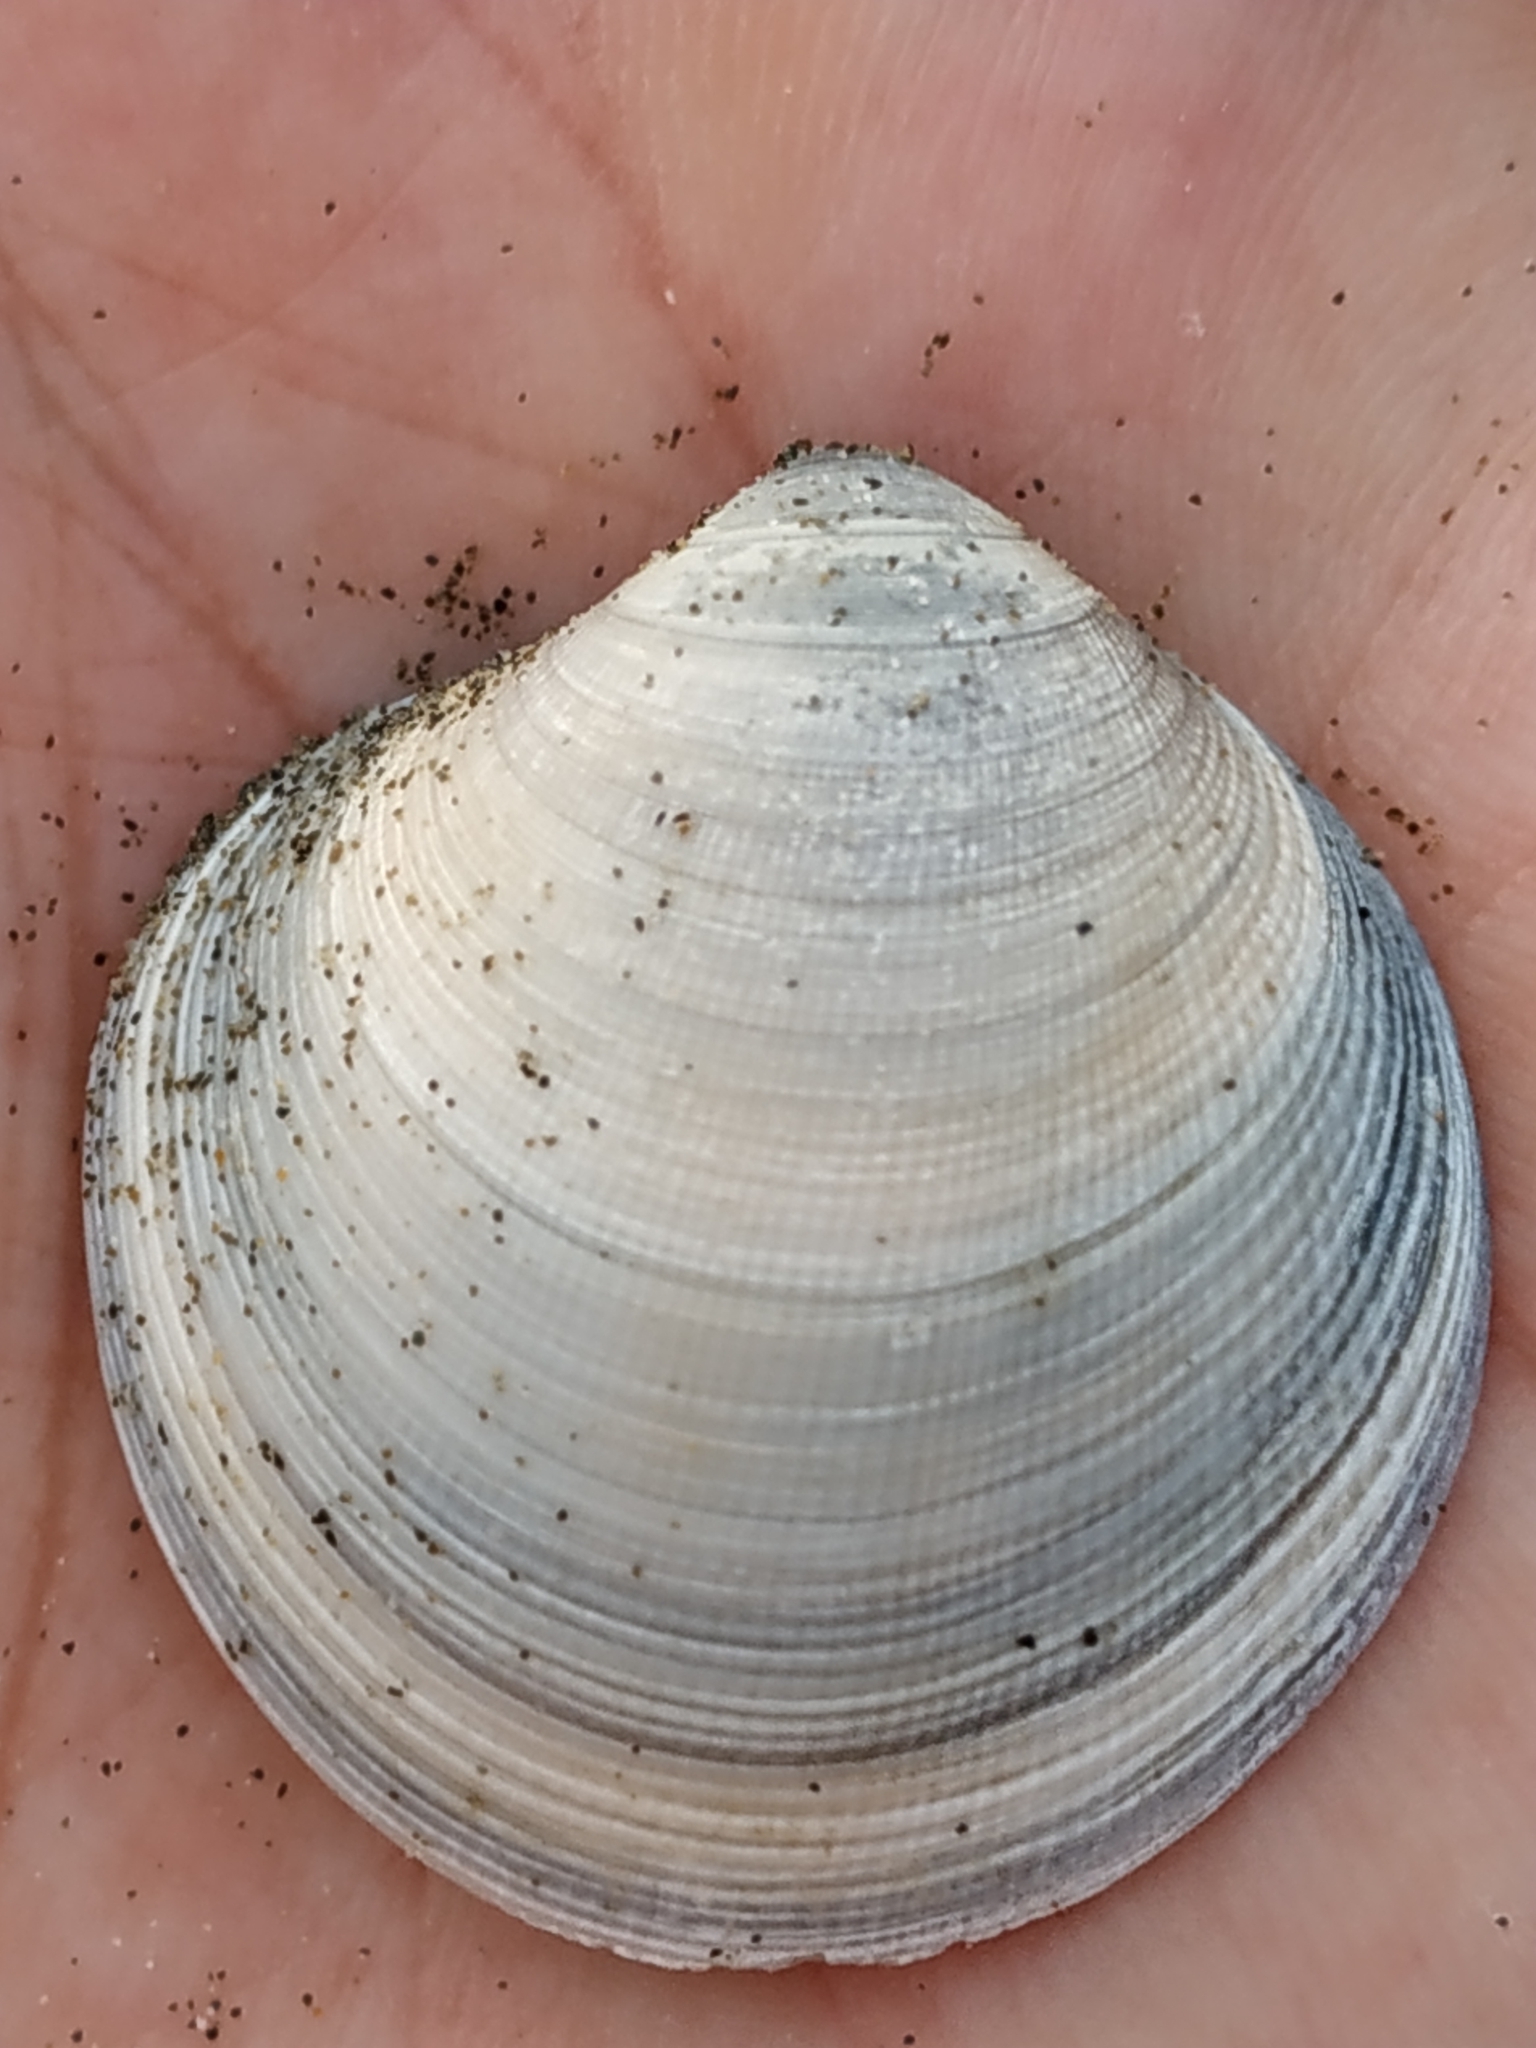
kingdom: Animalia
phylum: Mollusca
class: Bivalvia
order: Venerida
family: Veneridae
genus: Cyclina
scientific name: Cyclina sinensis
